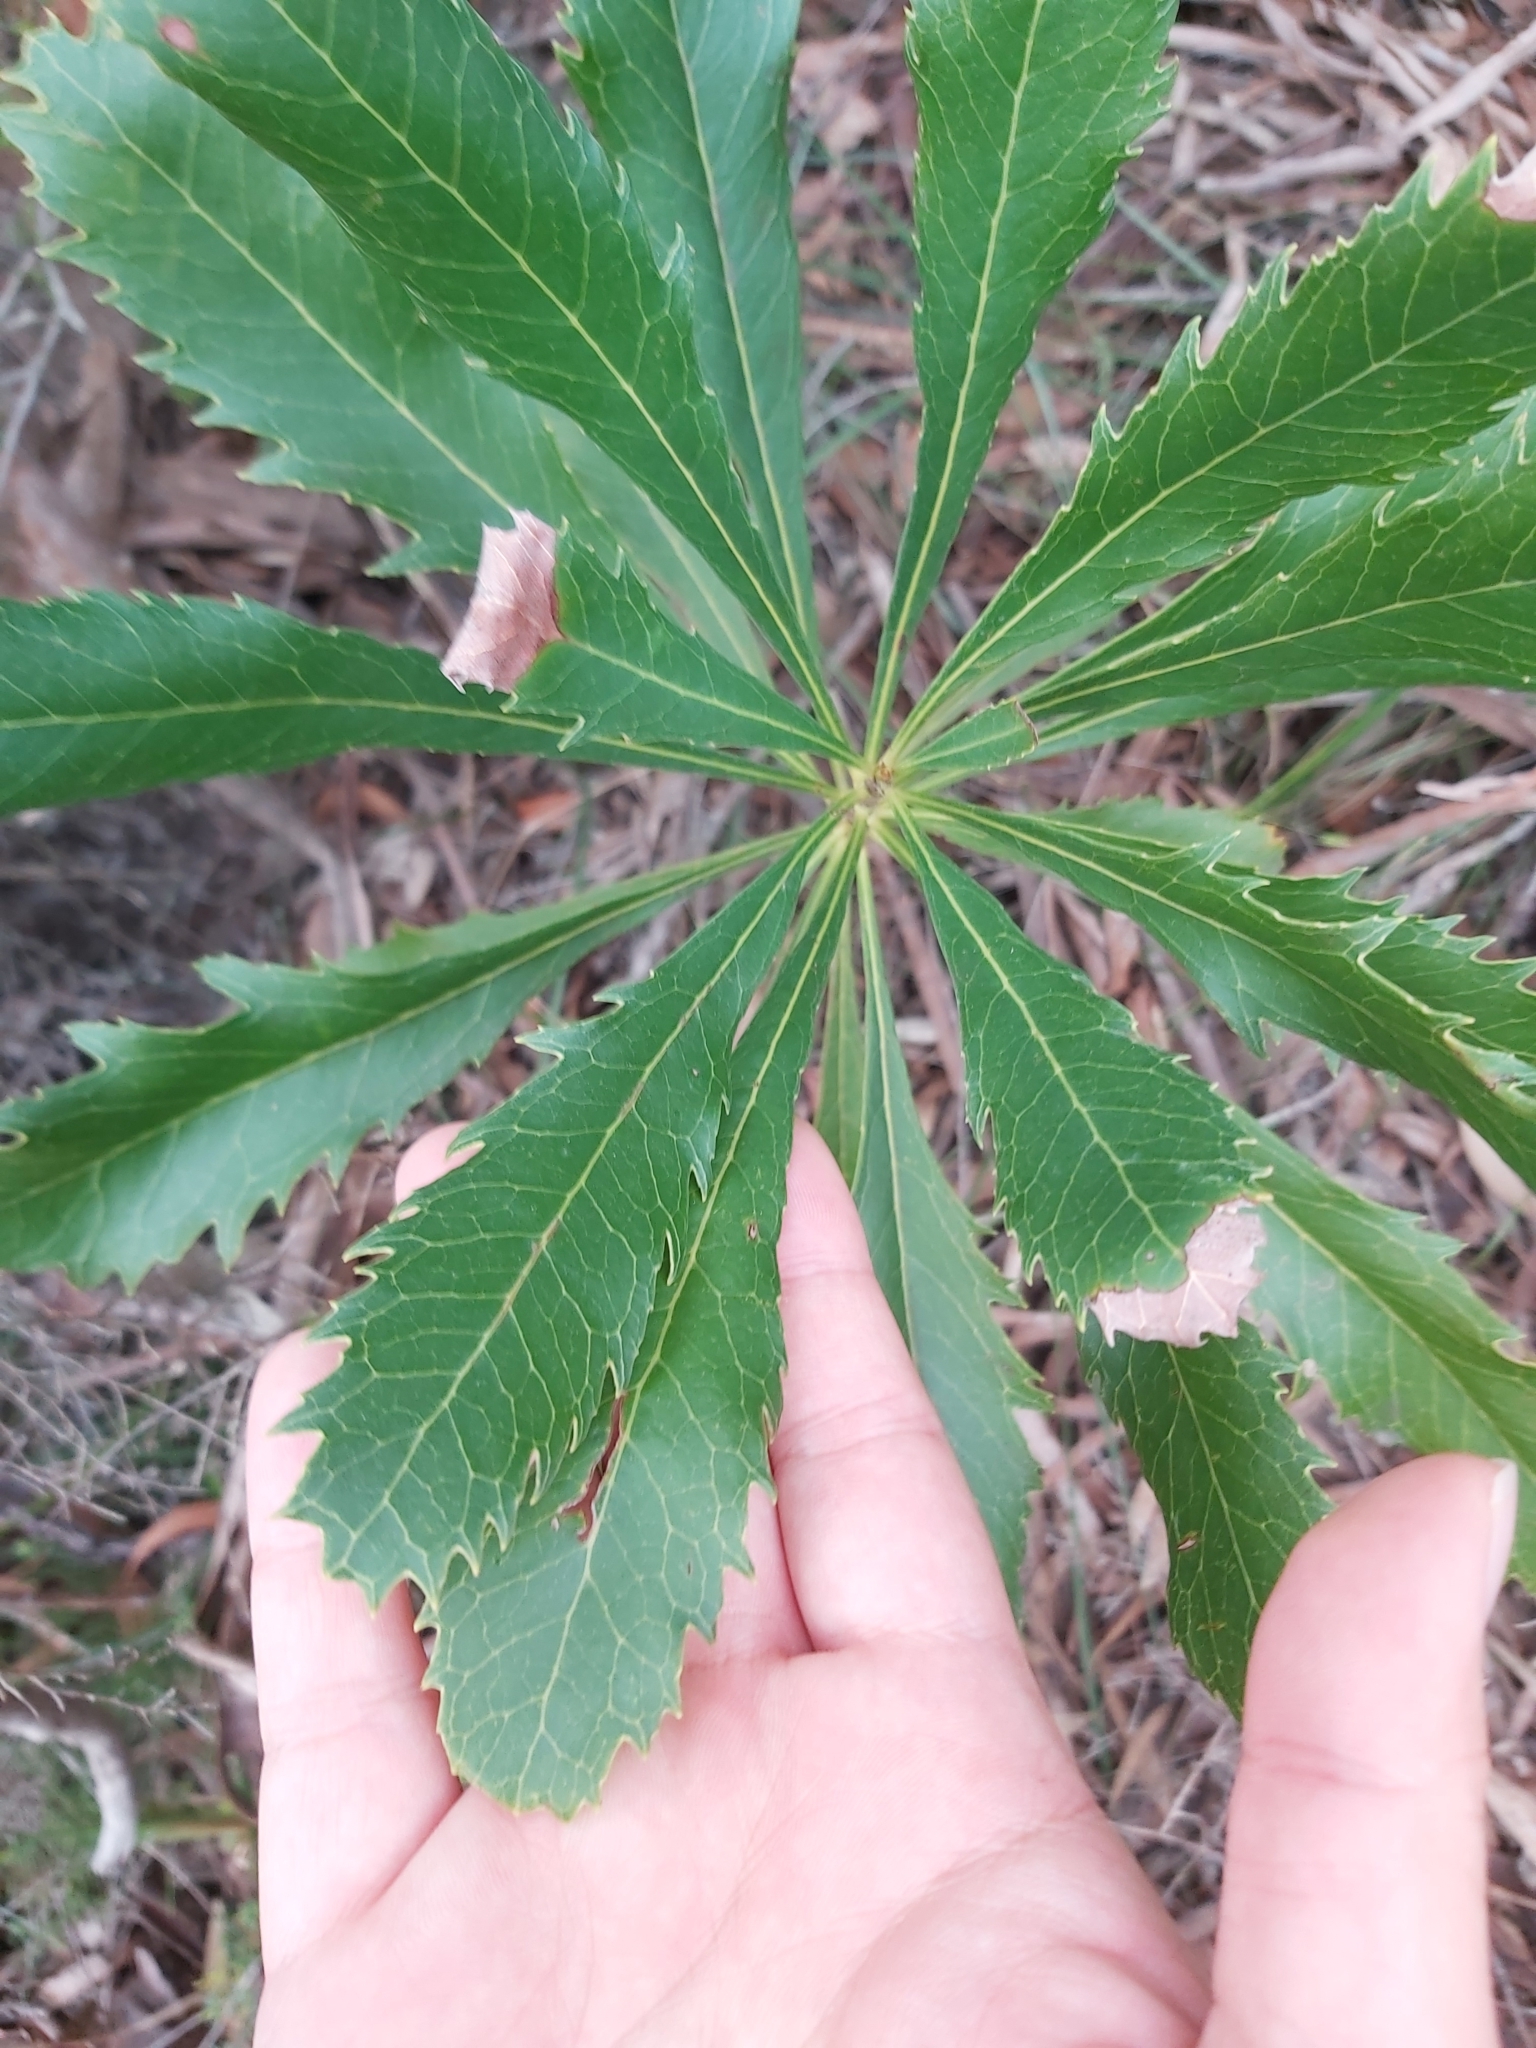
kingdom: Plantae
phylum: Tracheophyta
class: Magnoliopsida
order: Proteales
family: Proteaceae
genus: Telopea
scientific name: Telopea speciosissima
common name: New south wales waratah
